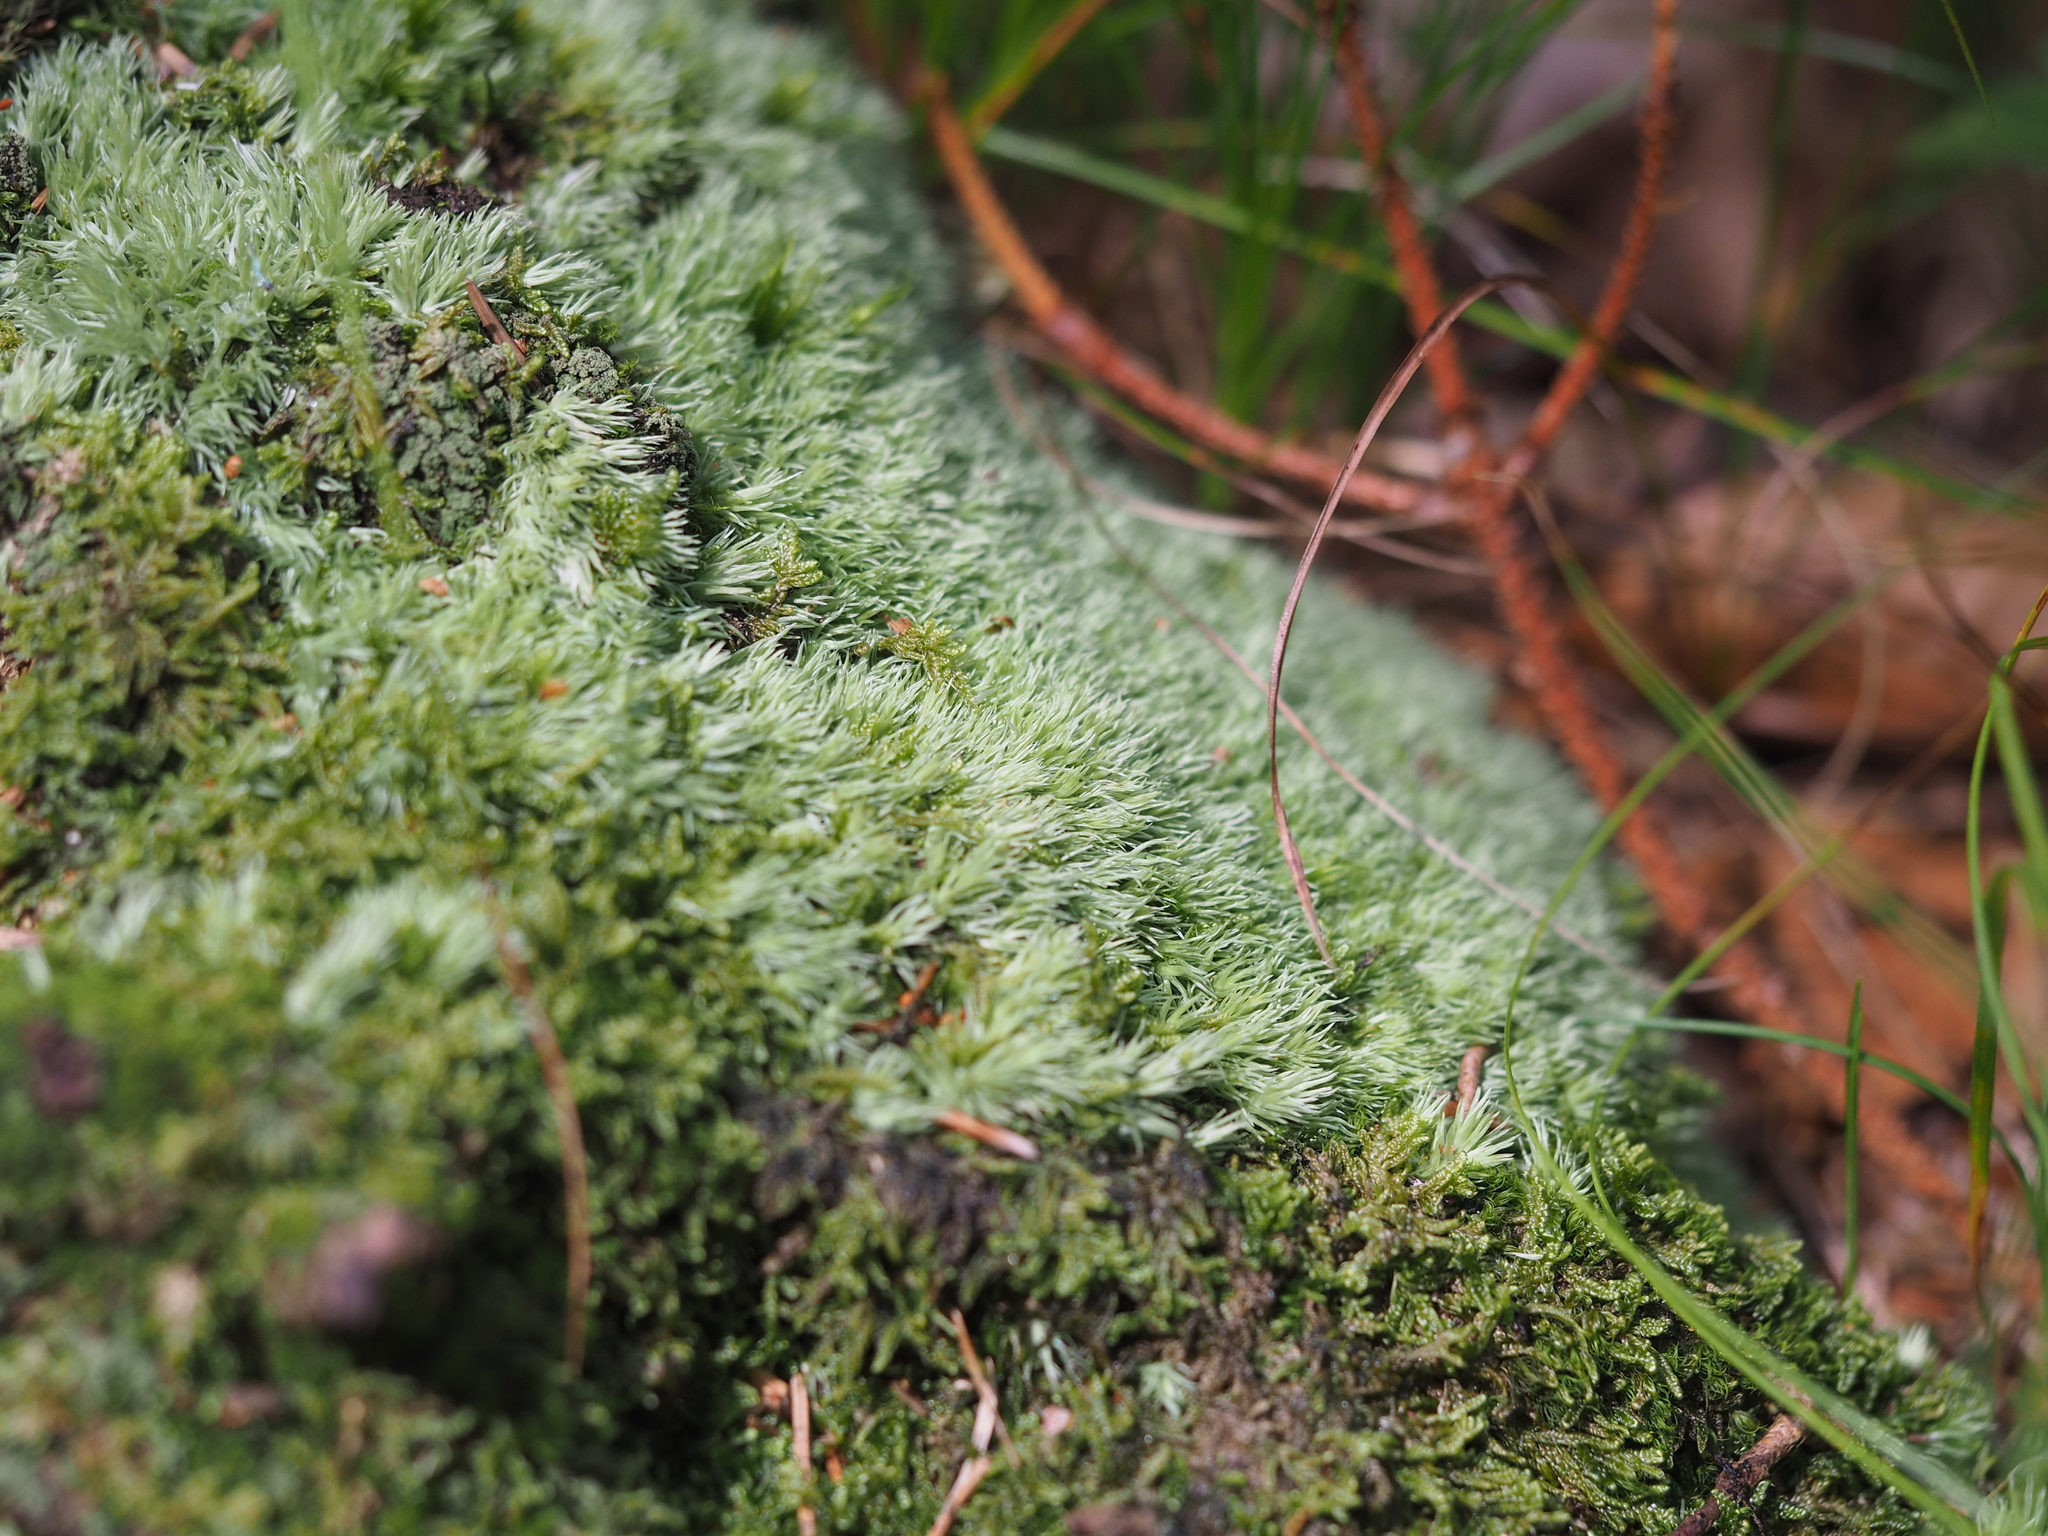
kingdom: Plantae
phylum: Bryophyta
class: Bryopsida
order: Dicranales
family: Leucobryaceae
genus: Leucobryum
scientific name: Leucobryum glaucum
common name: Large white-moss
